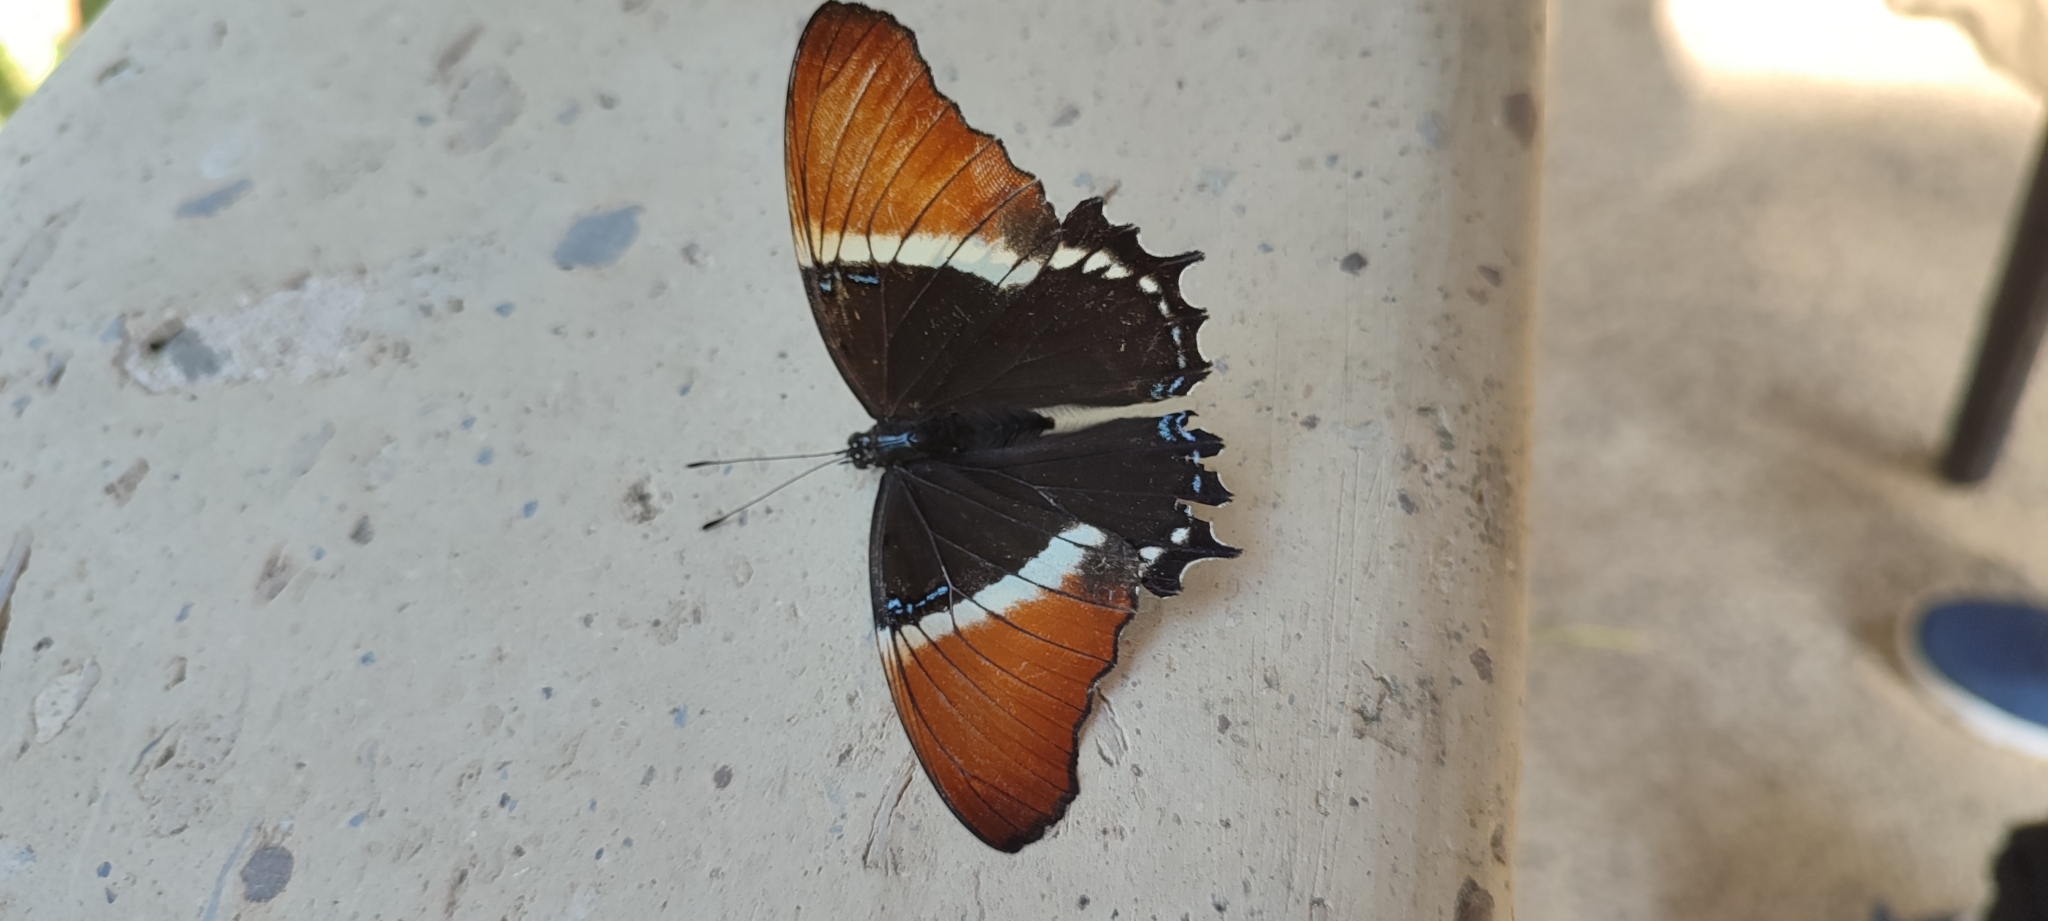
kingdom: Animalia
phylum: Arthropoda
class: Insecta
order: Lepidoptera
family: Nymphalidae
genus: Siproeta
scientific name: Siproeta epaphus
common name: Rusty-tipped page
